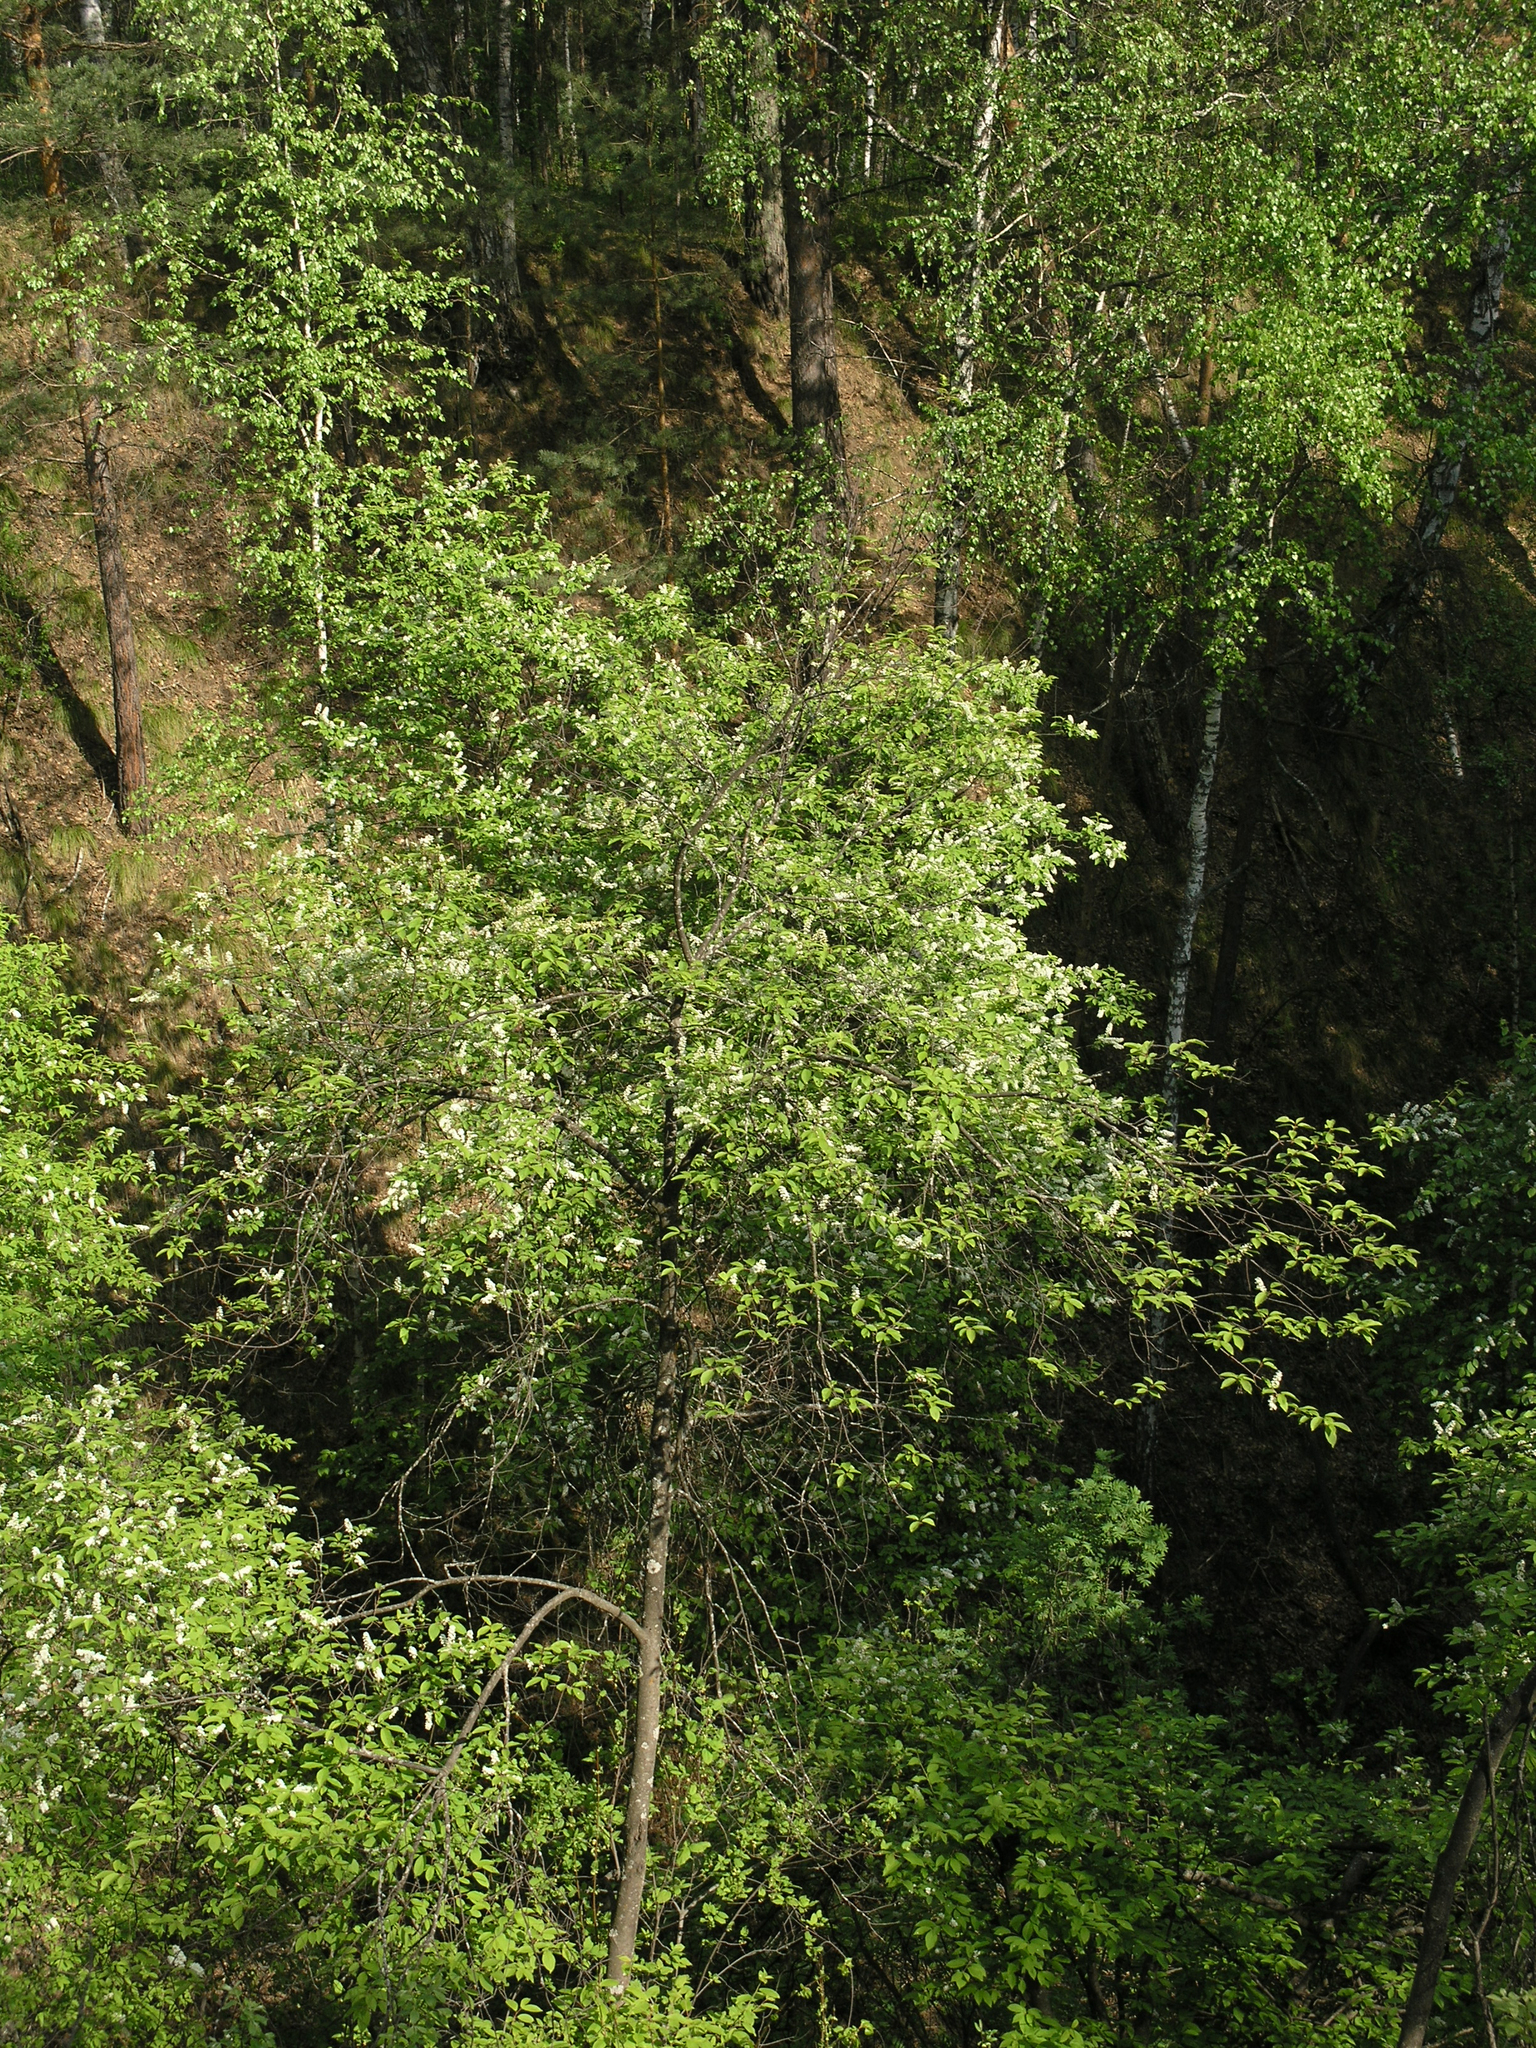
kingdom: Plantae
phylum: Tracheophyta
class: Magnoliopsida
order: Rosales
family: Rosaceae
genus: Prunus
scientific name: Prunus padus
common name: Bird cherry
